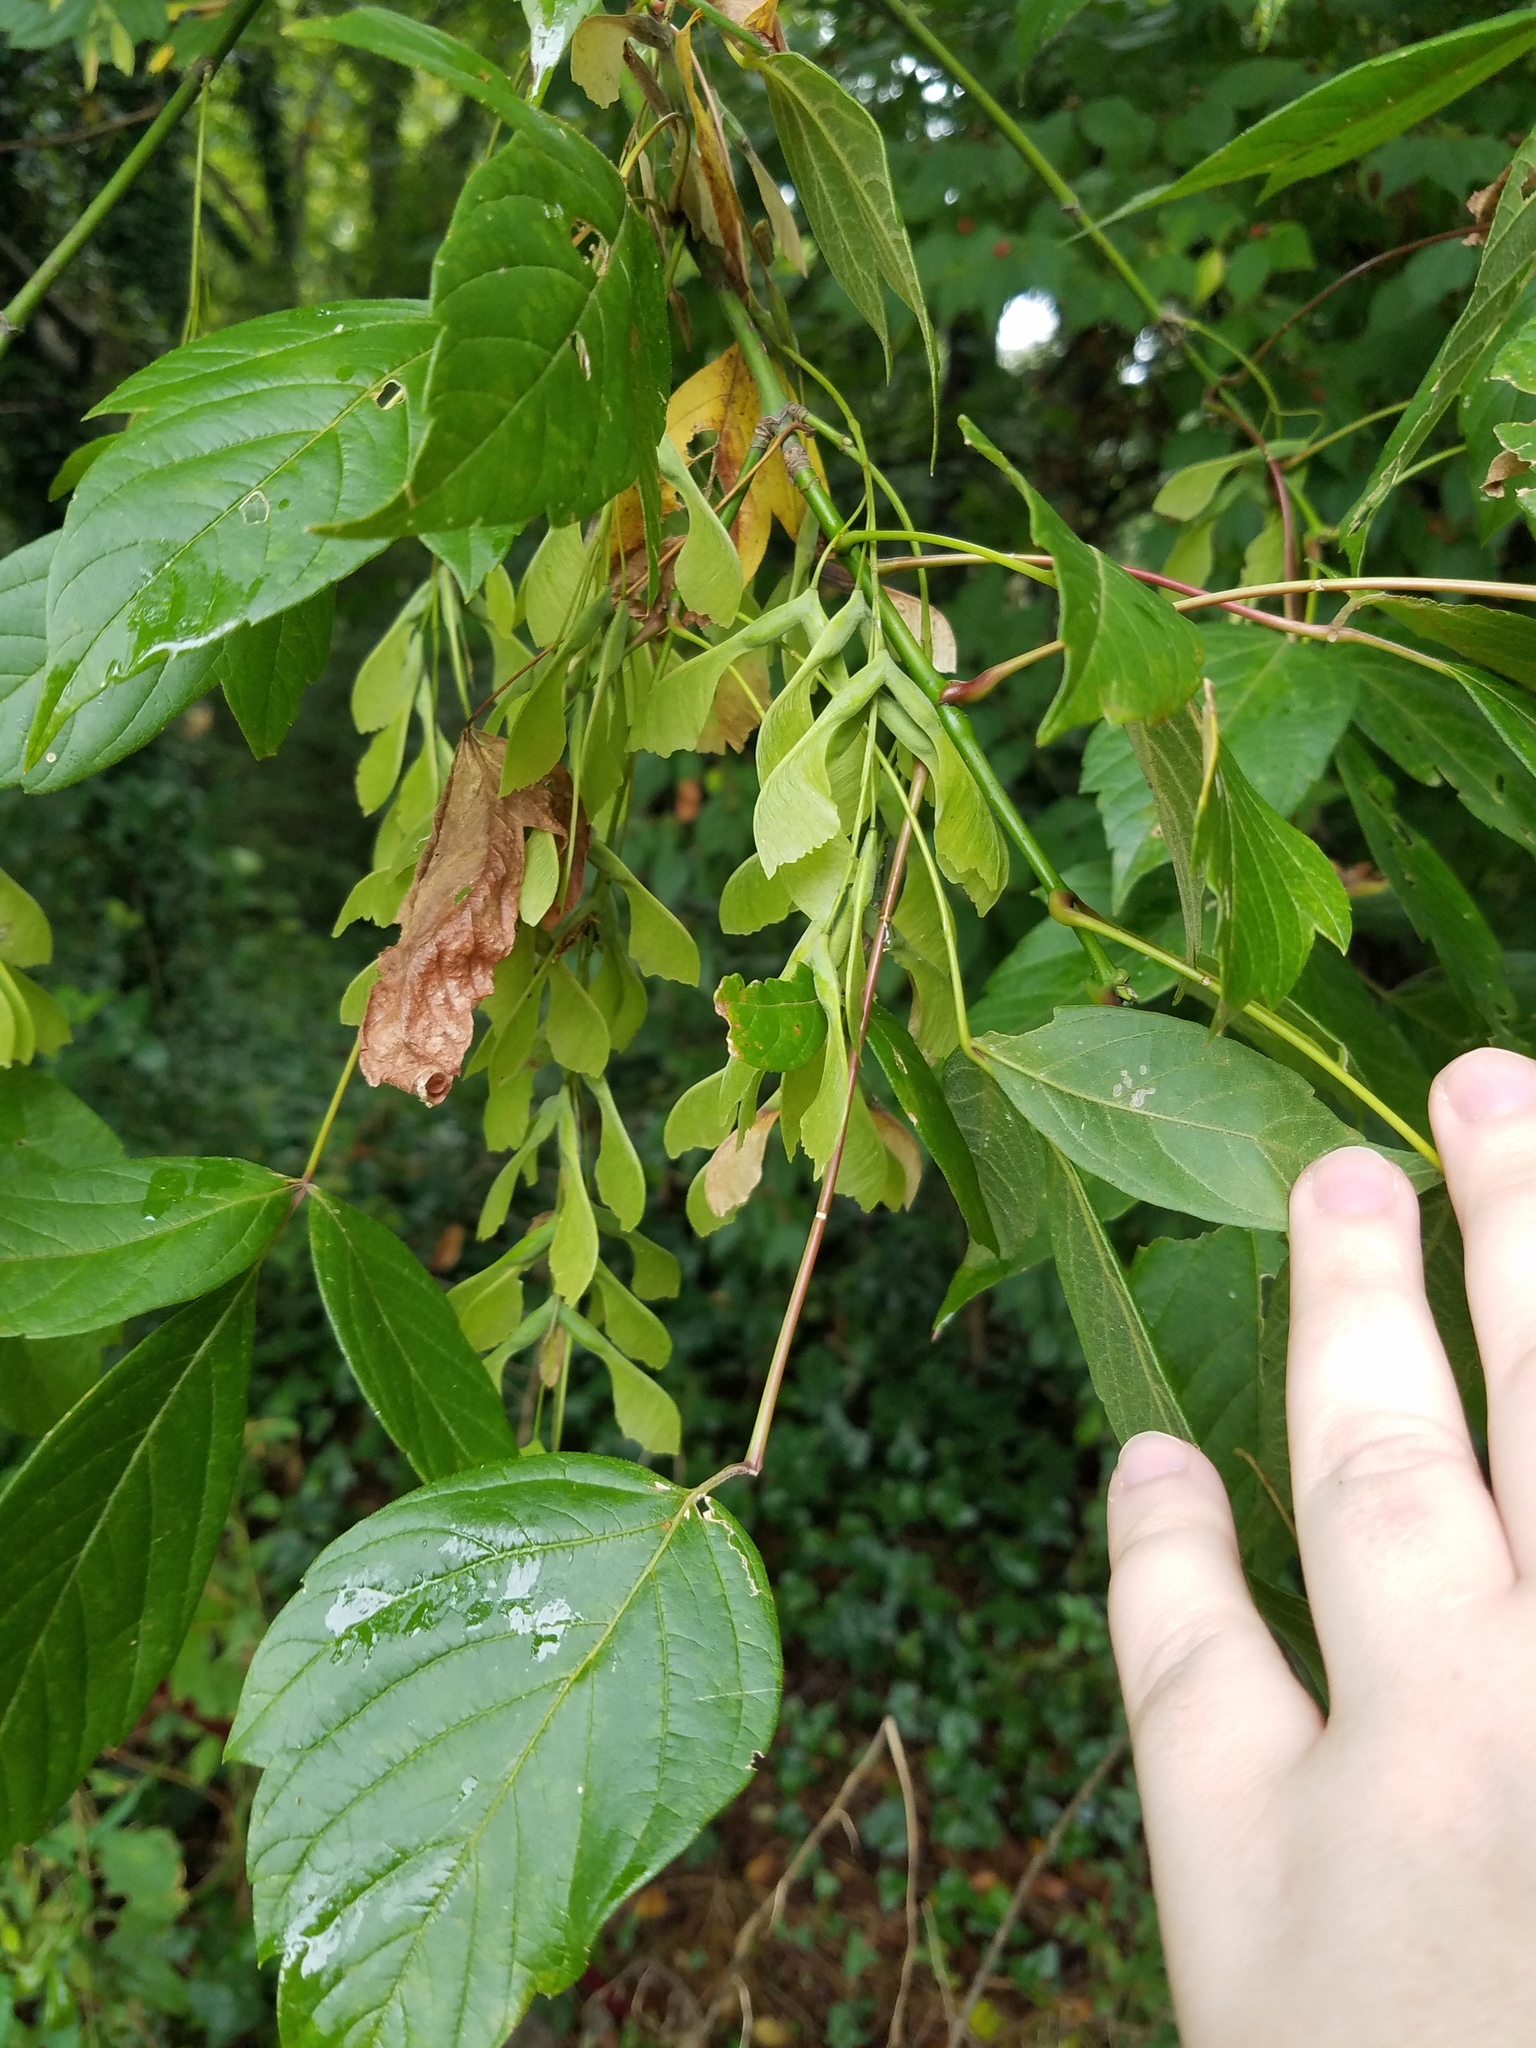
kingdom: Plantae
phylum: Tracheophyta
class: Magnoliopsida
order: Sapindales
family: Sapindaceae
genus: Acer
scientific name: Acer negundo
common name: Ashleaf maple
